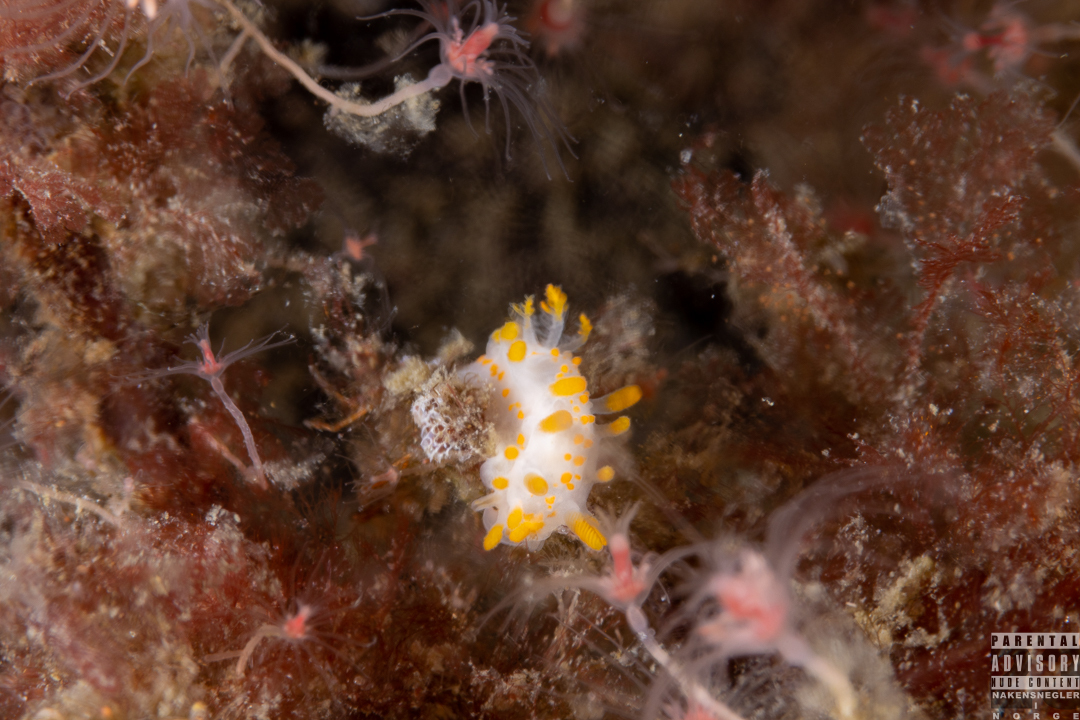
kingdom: Animalia
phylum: Mollusca
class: Gastropoda
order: Nudibranchia
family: Polyceridae
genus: Limacia
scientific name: Limacia clavigera
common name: Orange-clubbed sea slug
